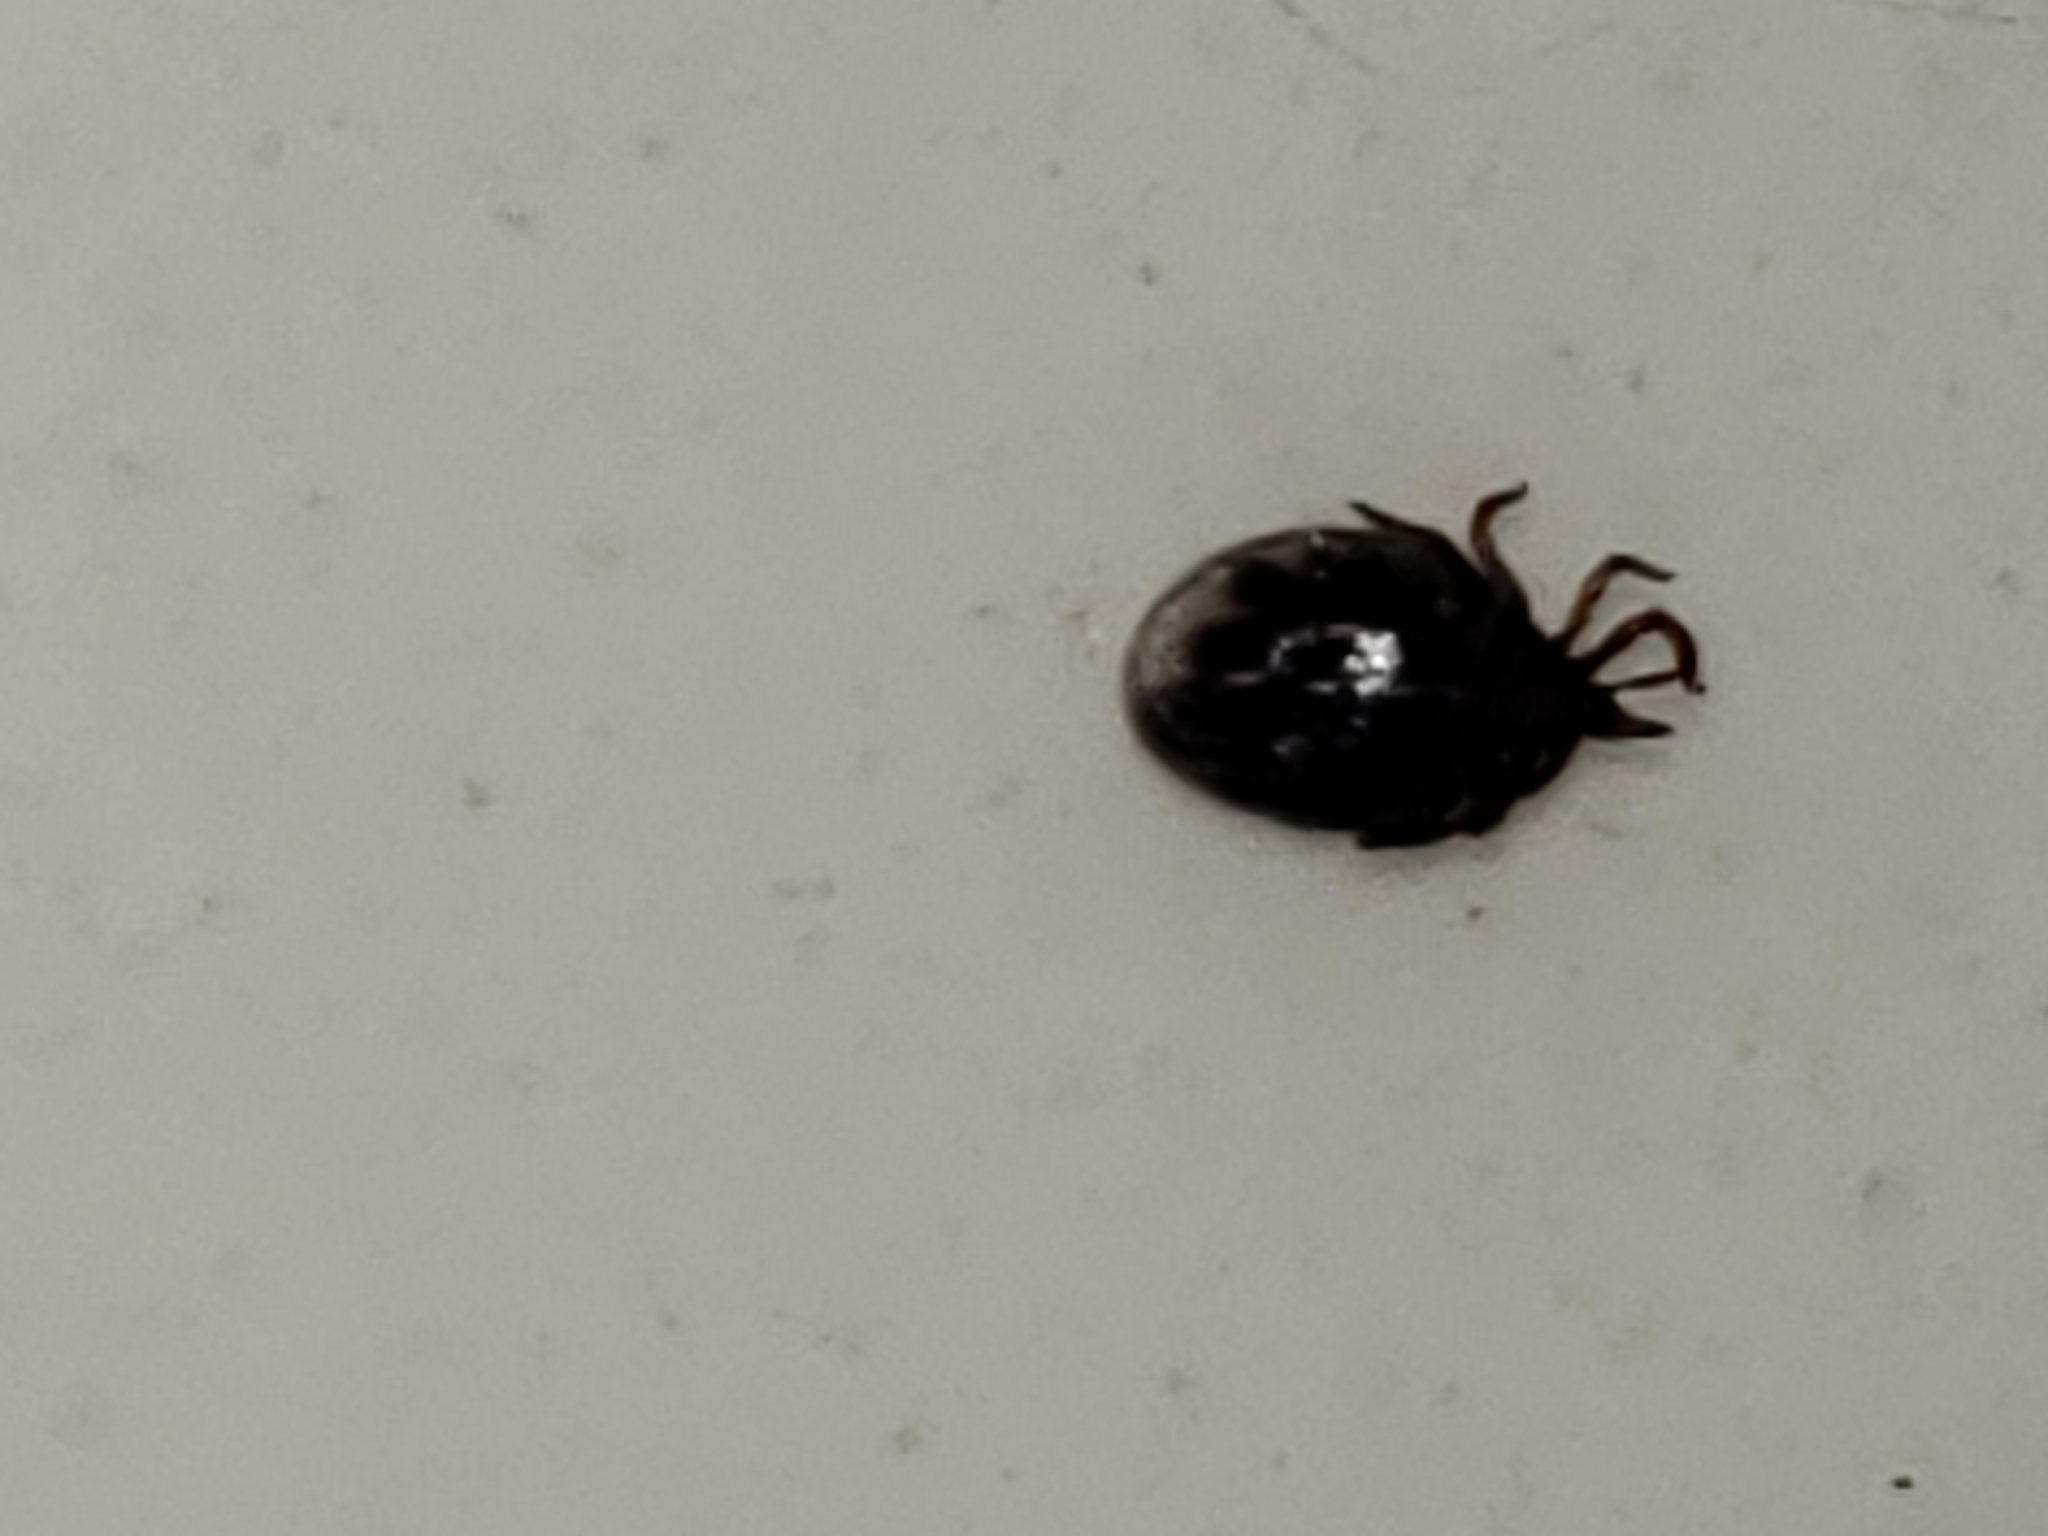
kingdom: Animalia
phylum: Arthropoda
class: Arachnida
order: Ixodida
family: Ixodidae
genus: Ixodes
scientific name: Ixodes scapularis
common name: Black legged tick
